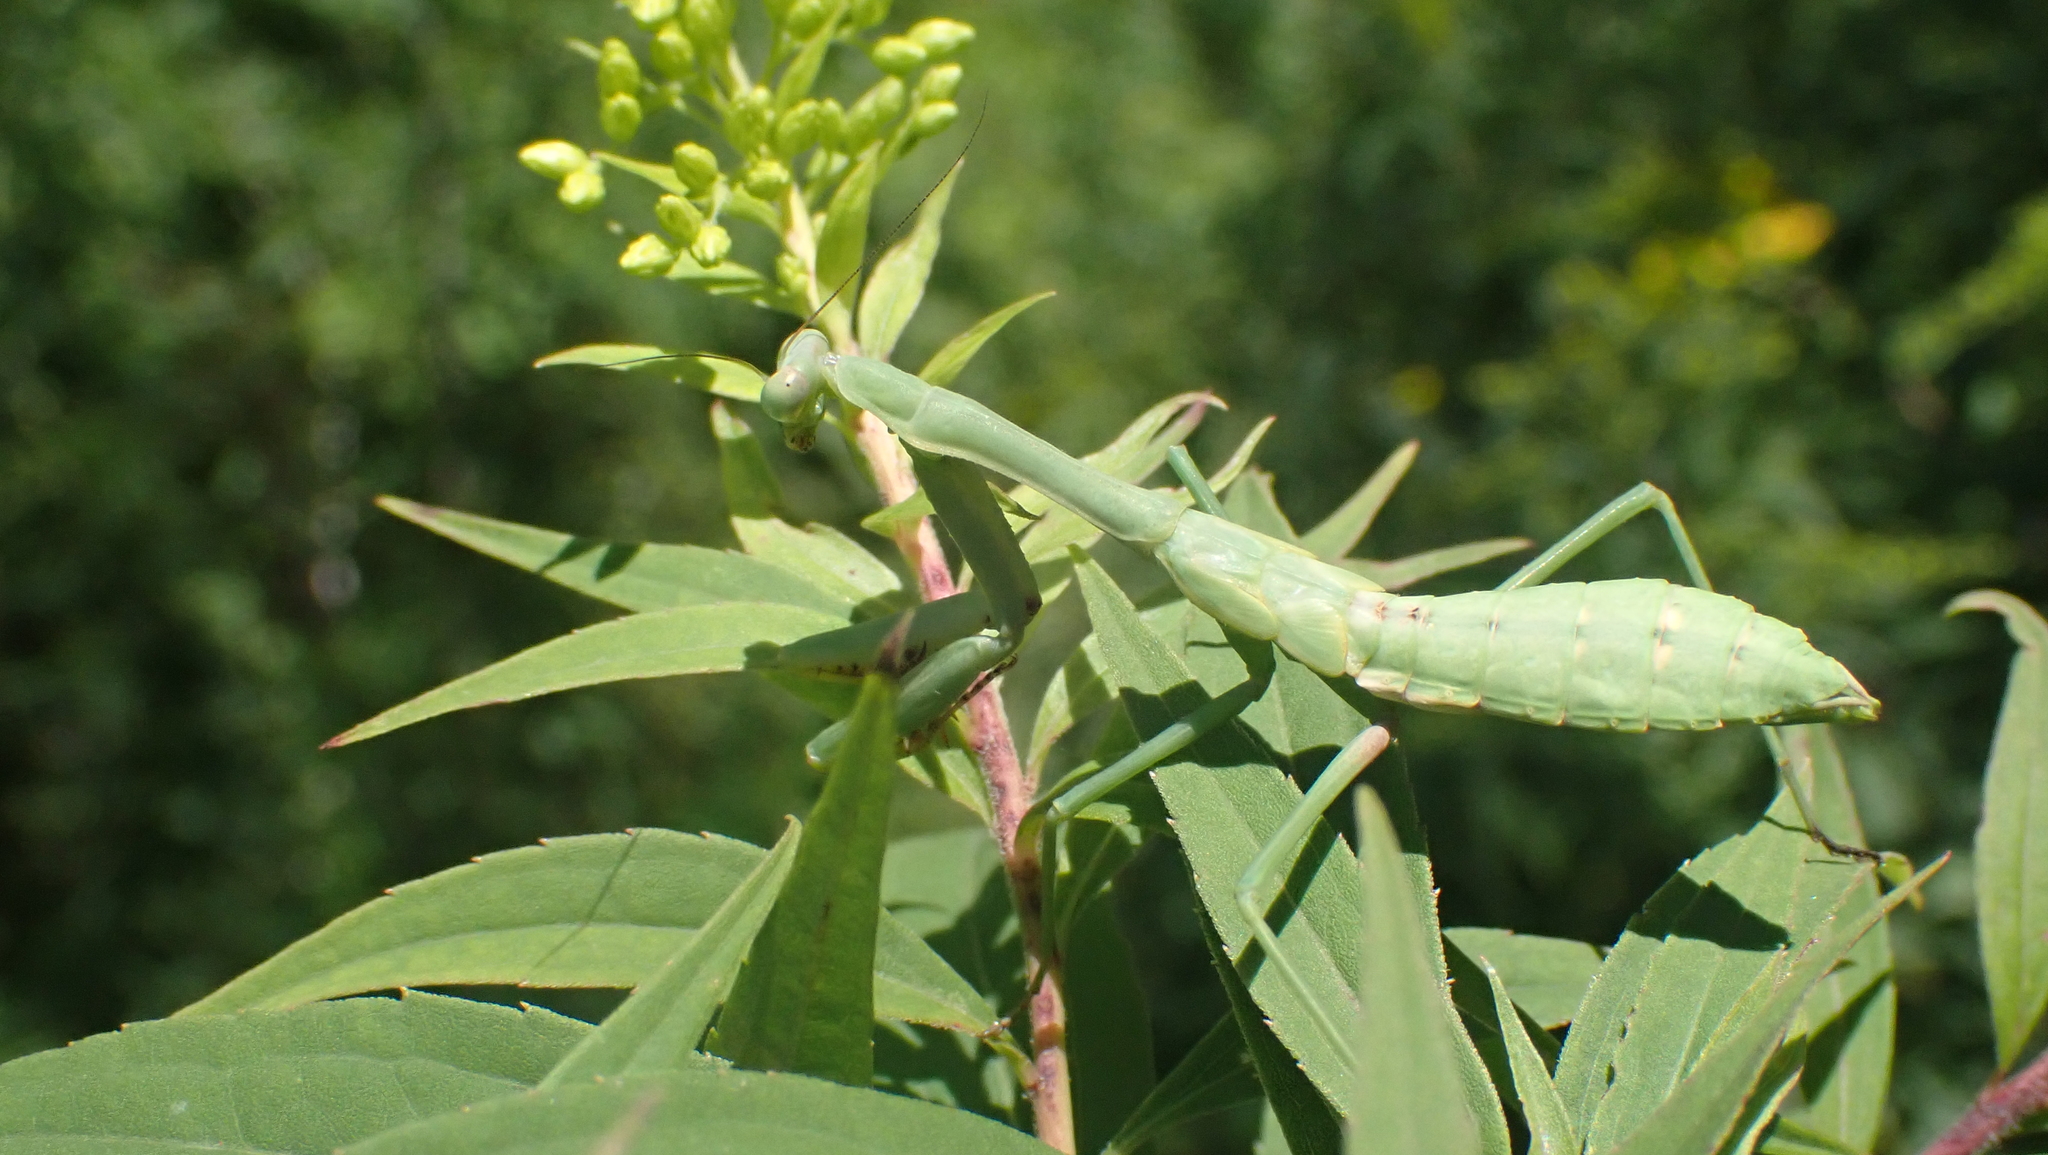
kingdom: Animalia
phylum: Arthropoda
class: Insecta
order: Mantodea
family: Mantidae
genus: Stagmomantis
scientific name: Stagmomantis carolina
